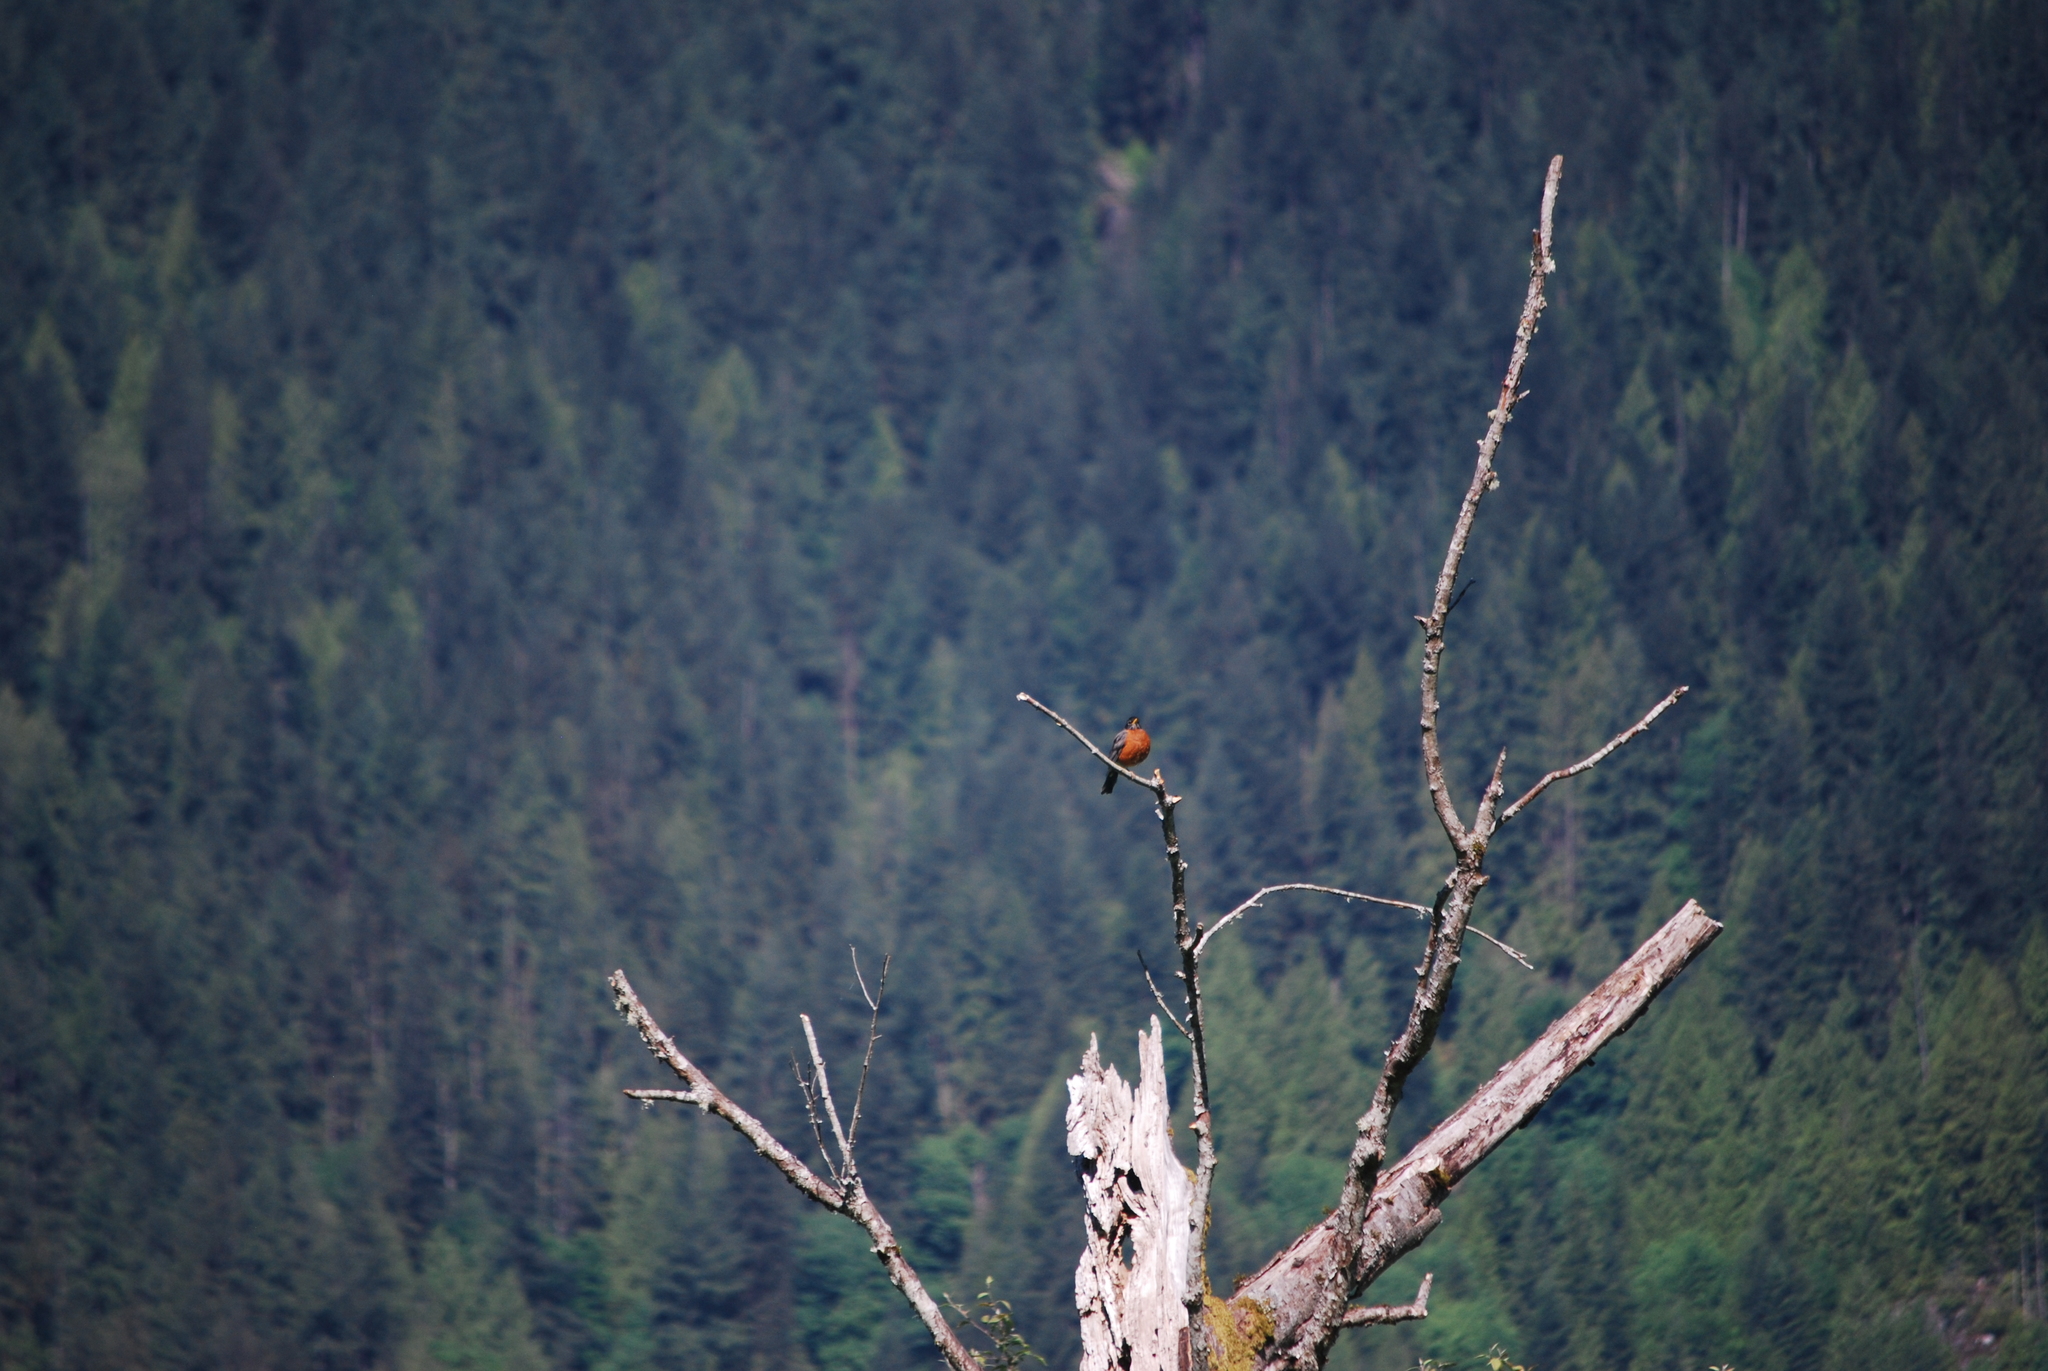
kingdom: Animalia
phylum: Chordata
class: Aves
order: Passeriformes
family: Turdidae
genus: Turdus
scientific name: Turdus migratorius
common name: American robin
